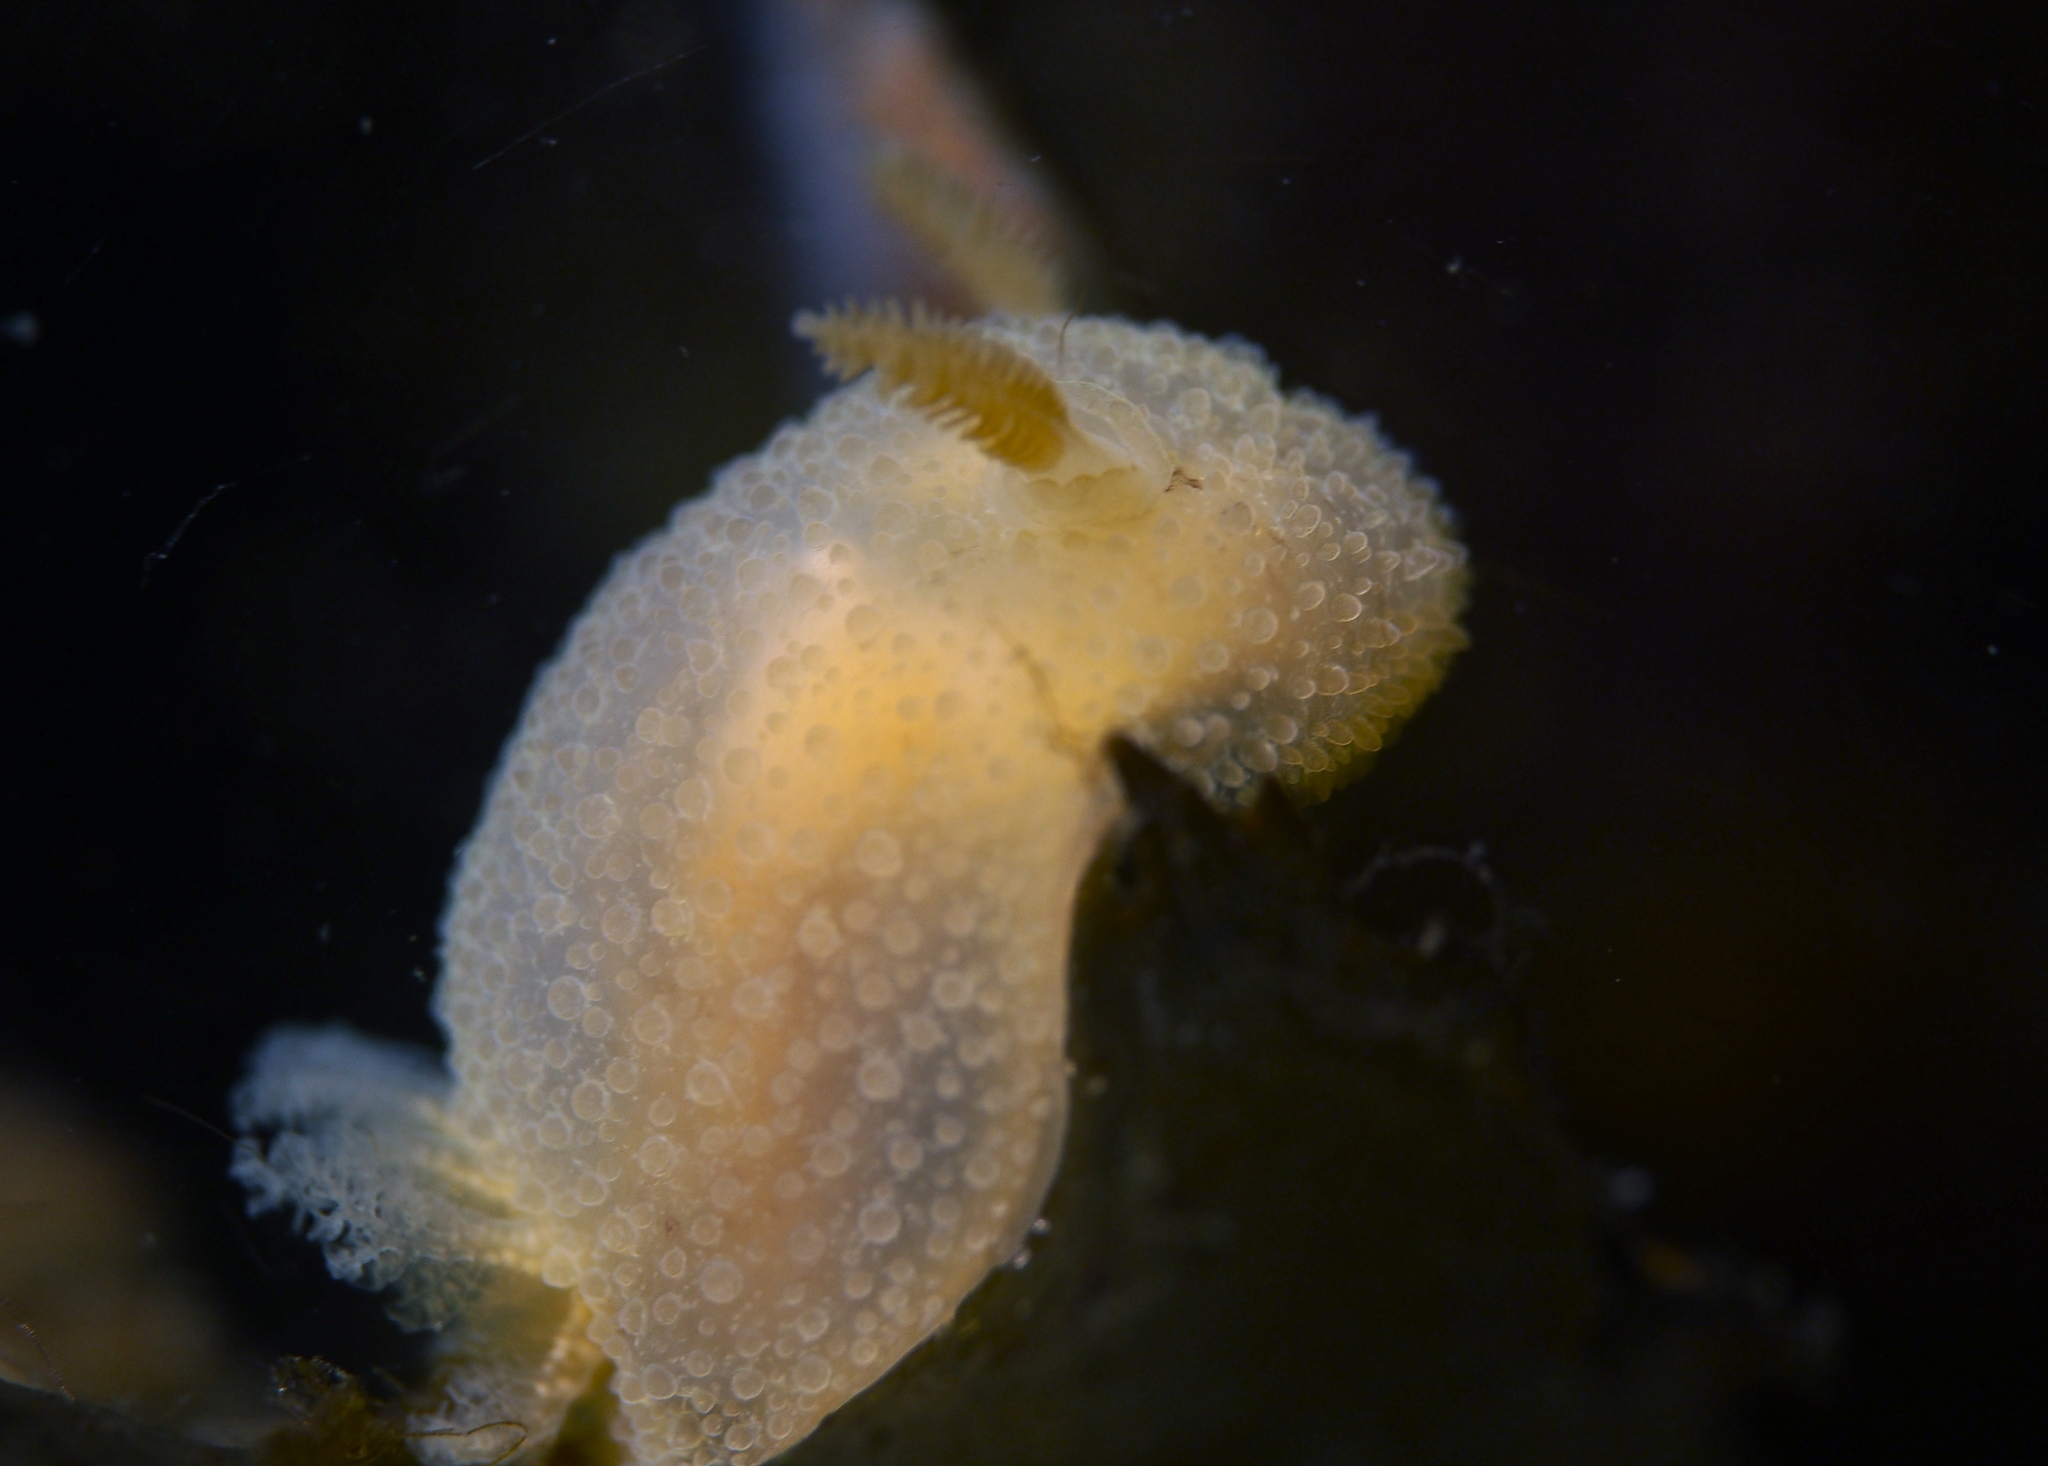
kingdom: Animalia
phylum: Mollusca
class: Gastropoda
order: Nudibranchia
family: Onchidorididae
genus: Acanthodoris
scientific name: Acanthodoris pilosa
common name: Hairy spiny doris
